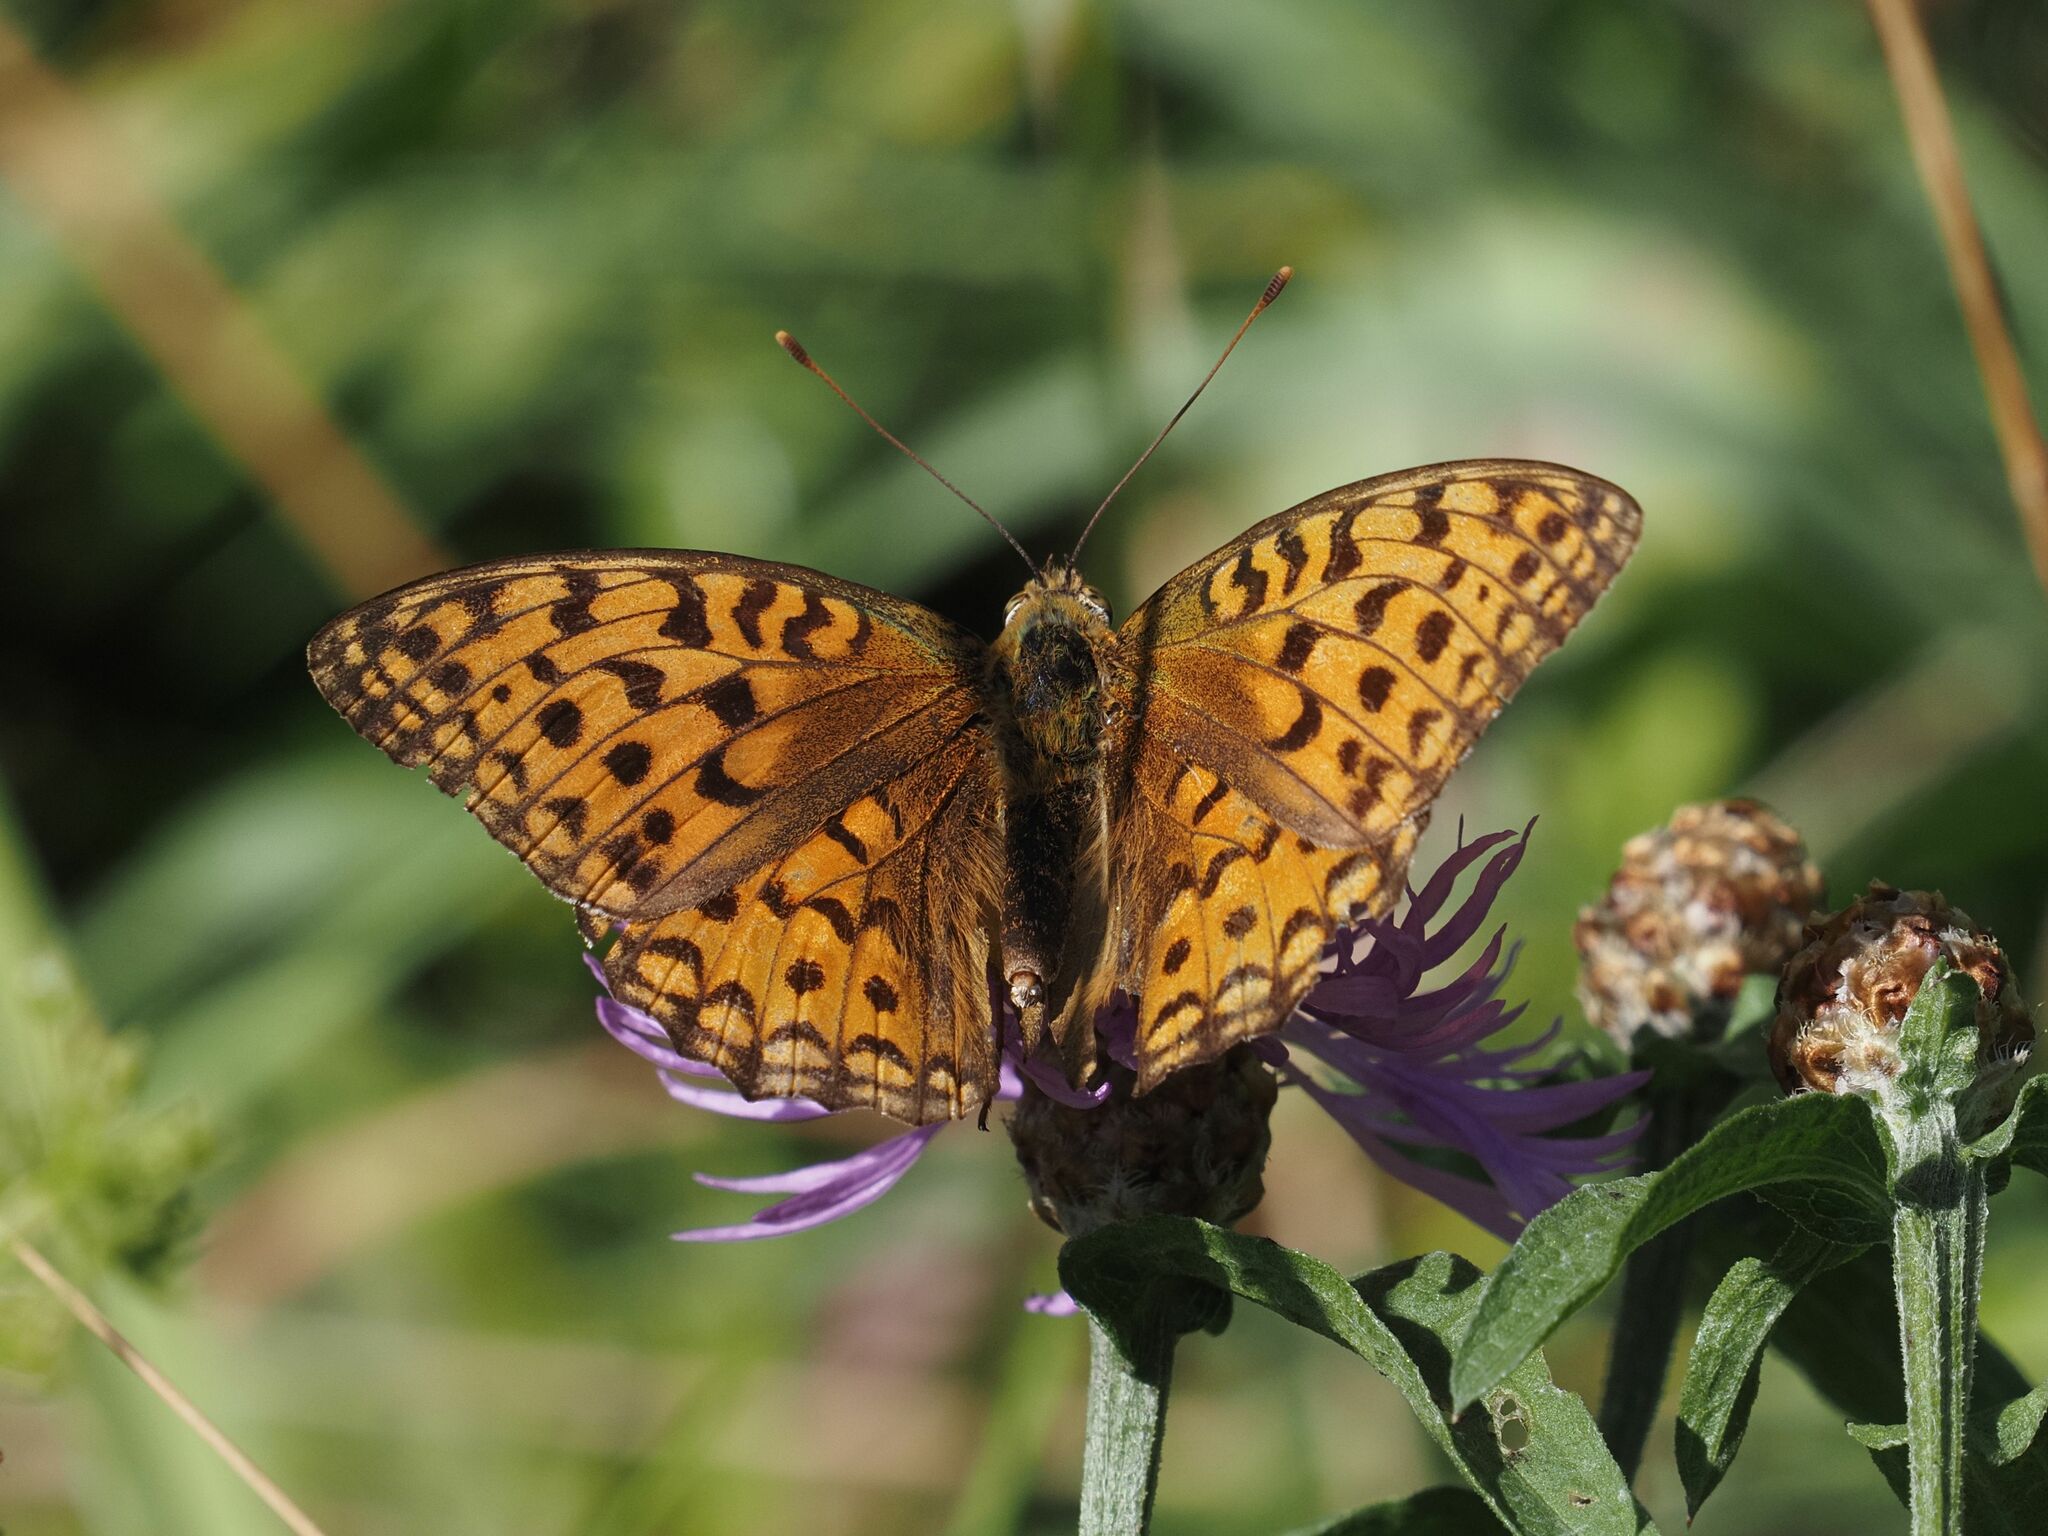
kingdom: Animalia
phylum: Arthropoda
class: Insecta
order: Lepidoptera
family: Nymphalidae
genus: Fabriciana
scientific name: Fabriciana adippe
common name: High brown fritillary
